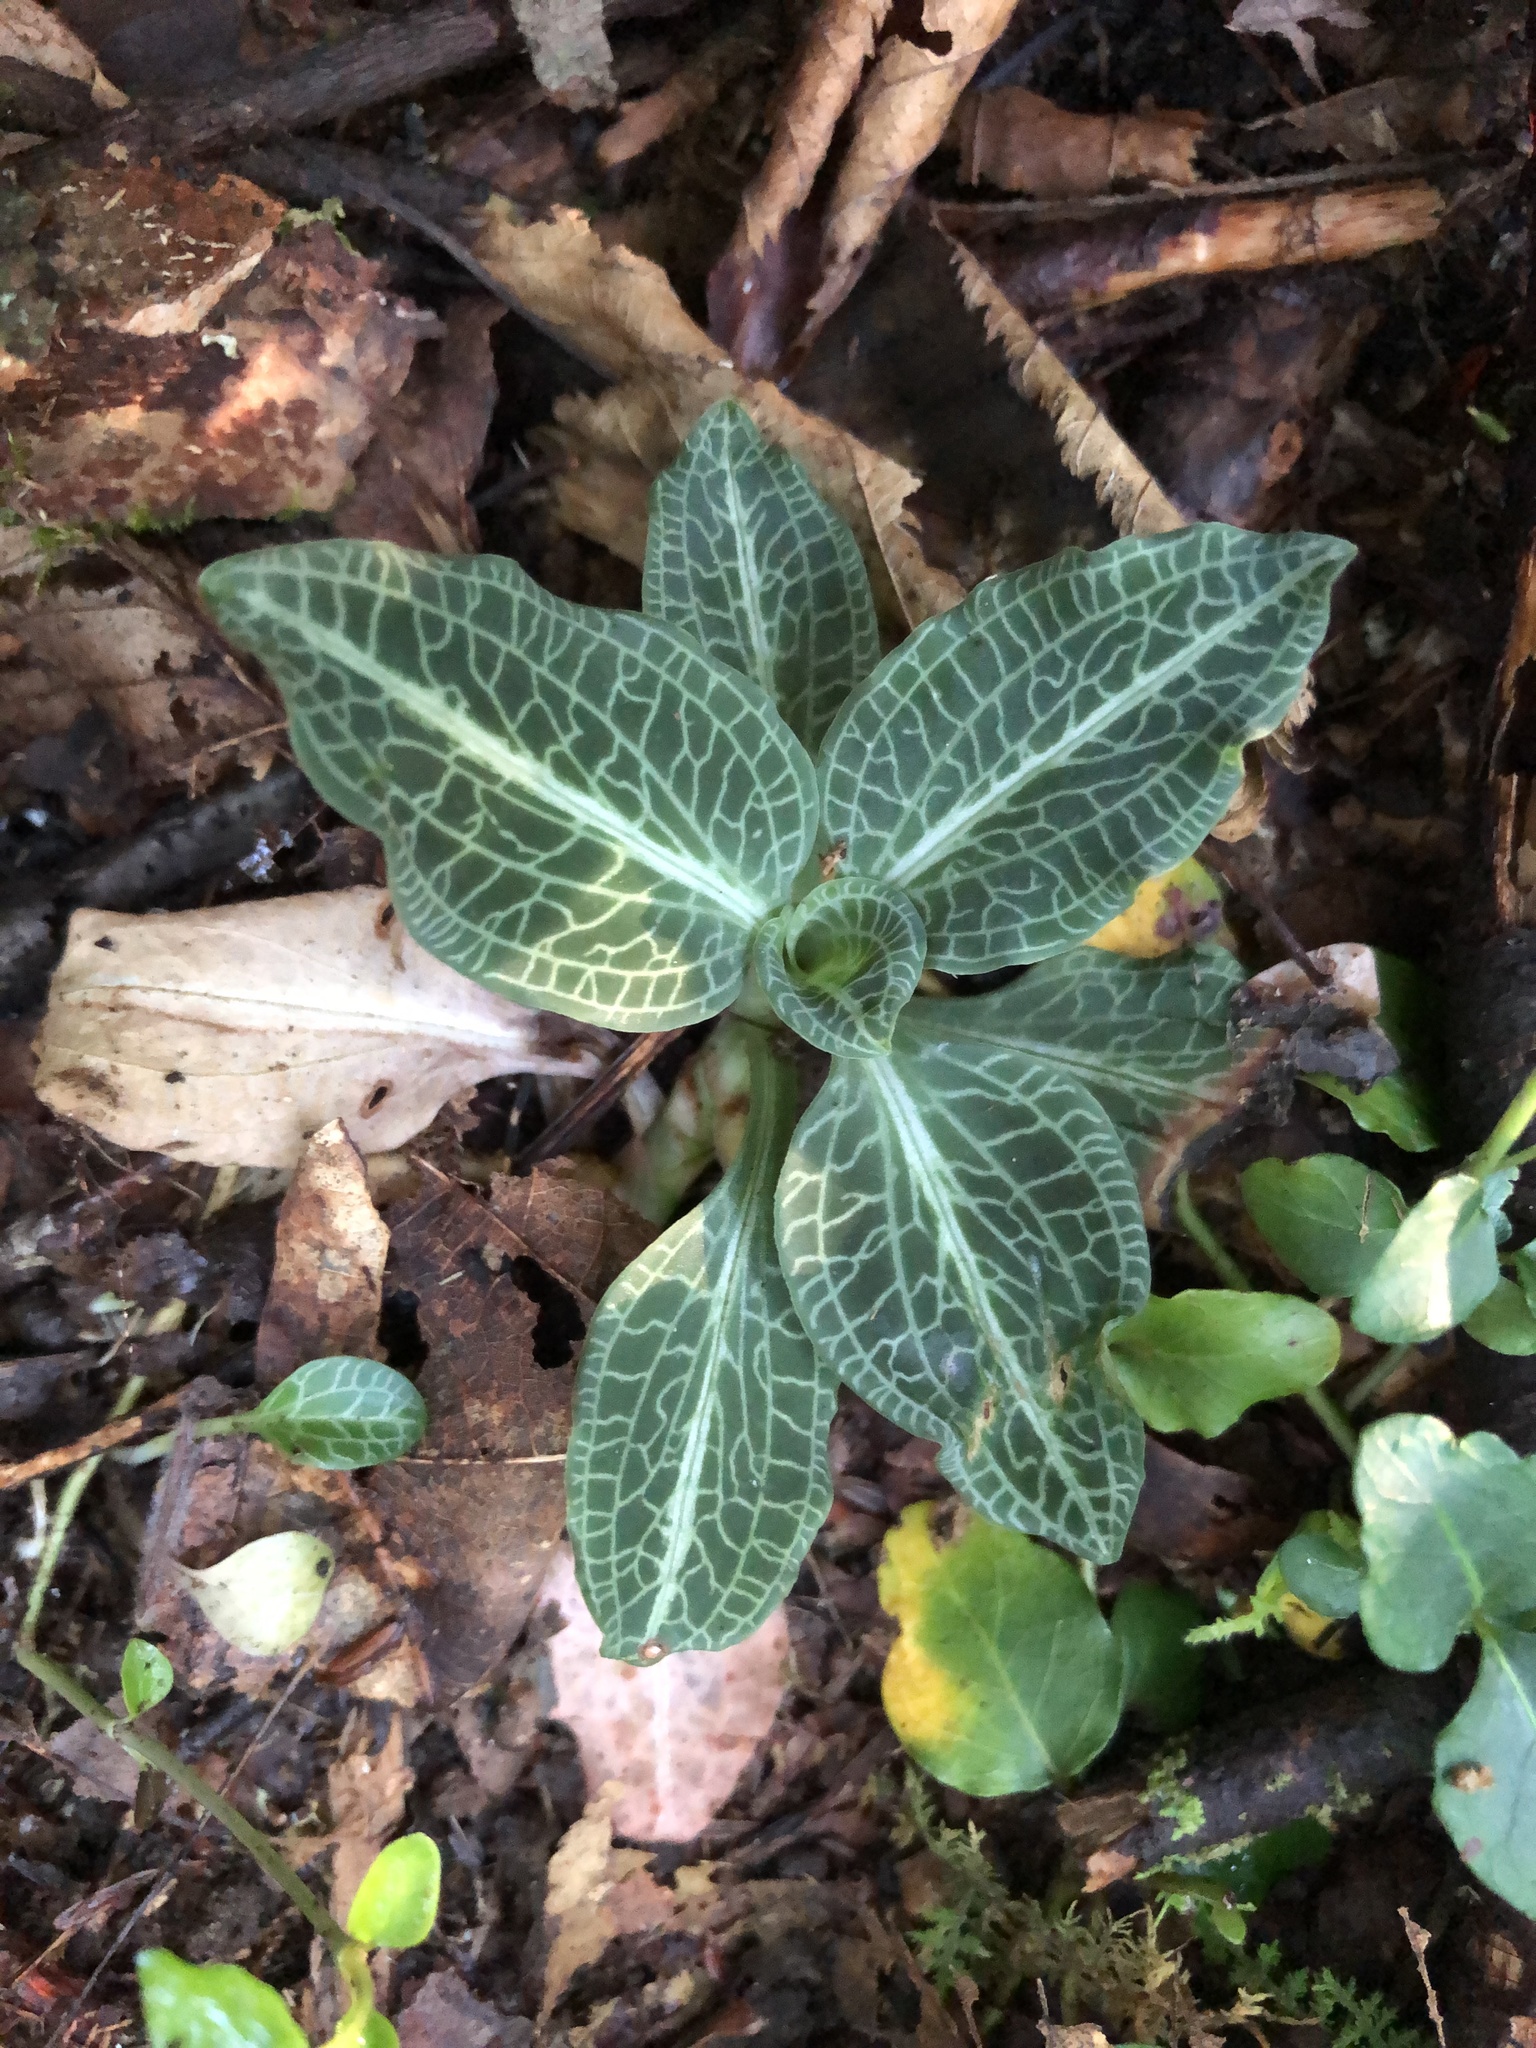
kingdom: Plantae
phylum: Tracheophyta
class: Liliopsida
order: Asparagales
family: Orchidaceae
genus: Goodyera
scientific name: Goodyera pubescens
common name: Downy rattlesnake-plantain
